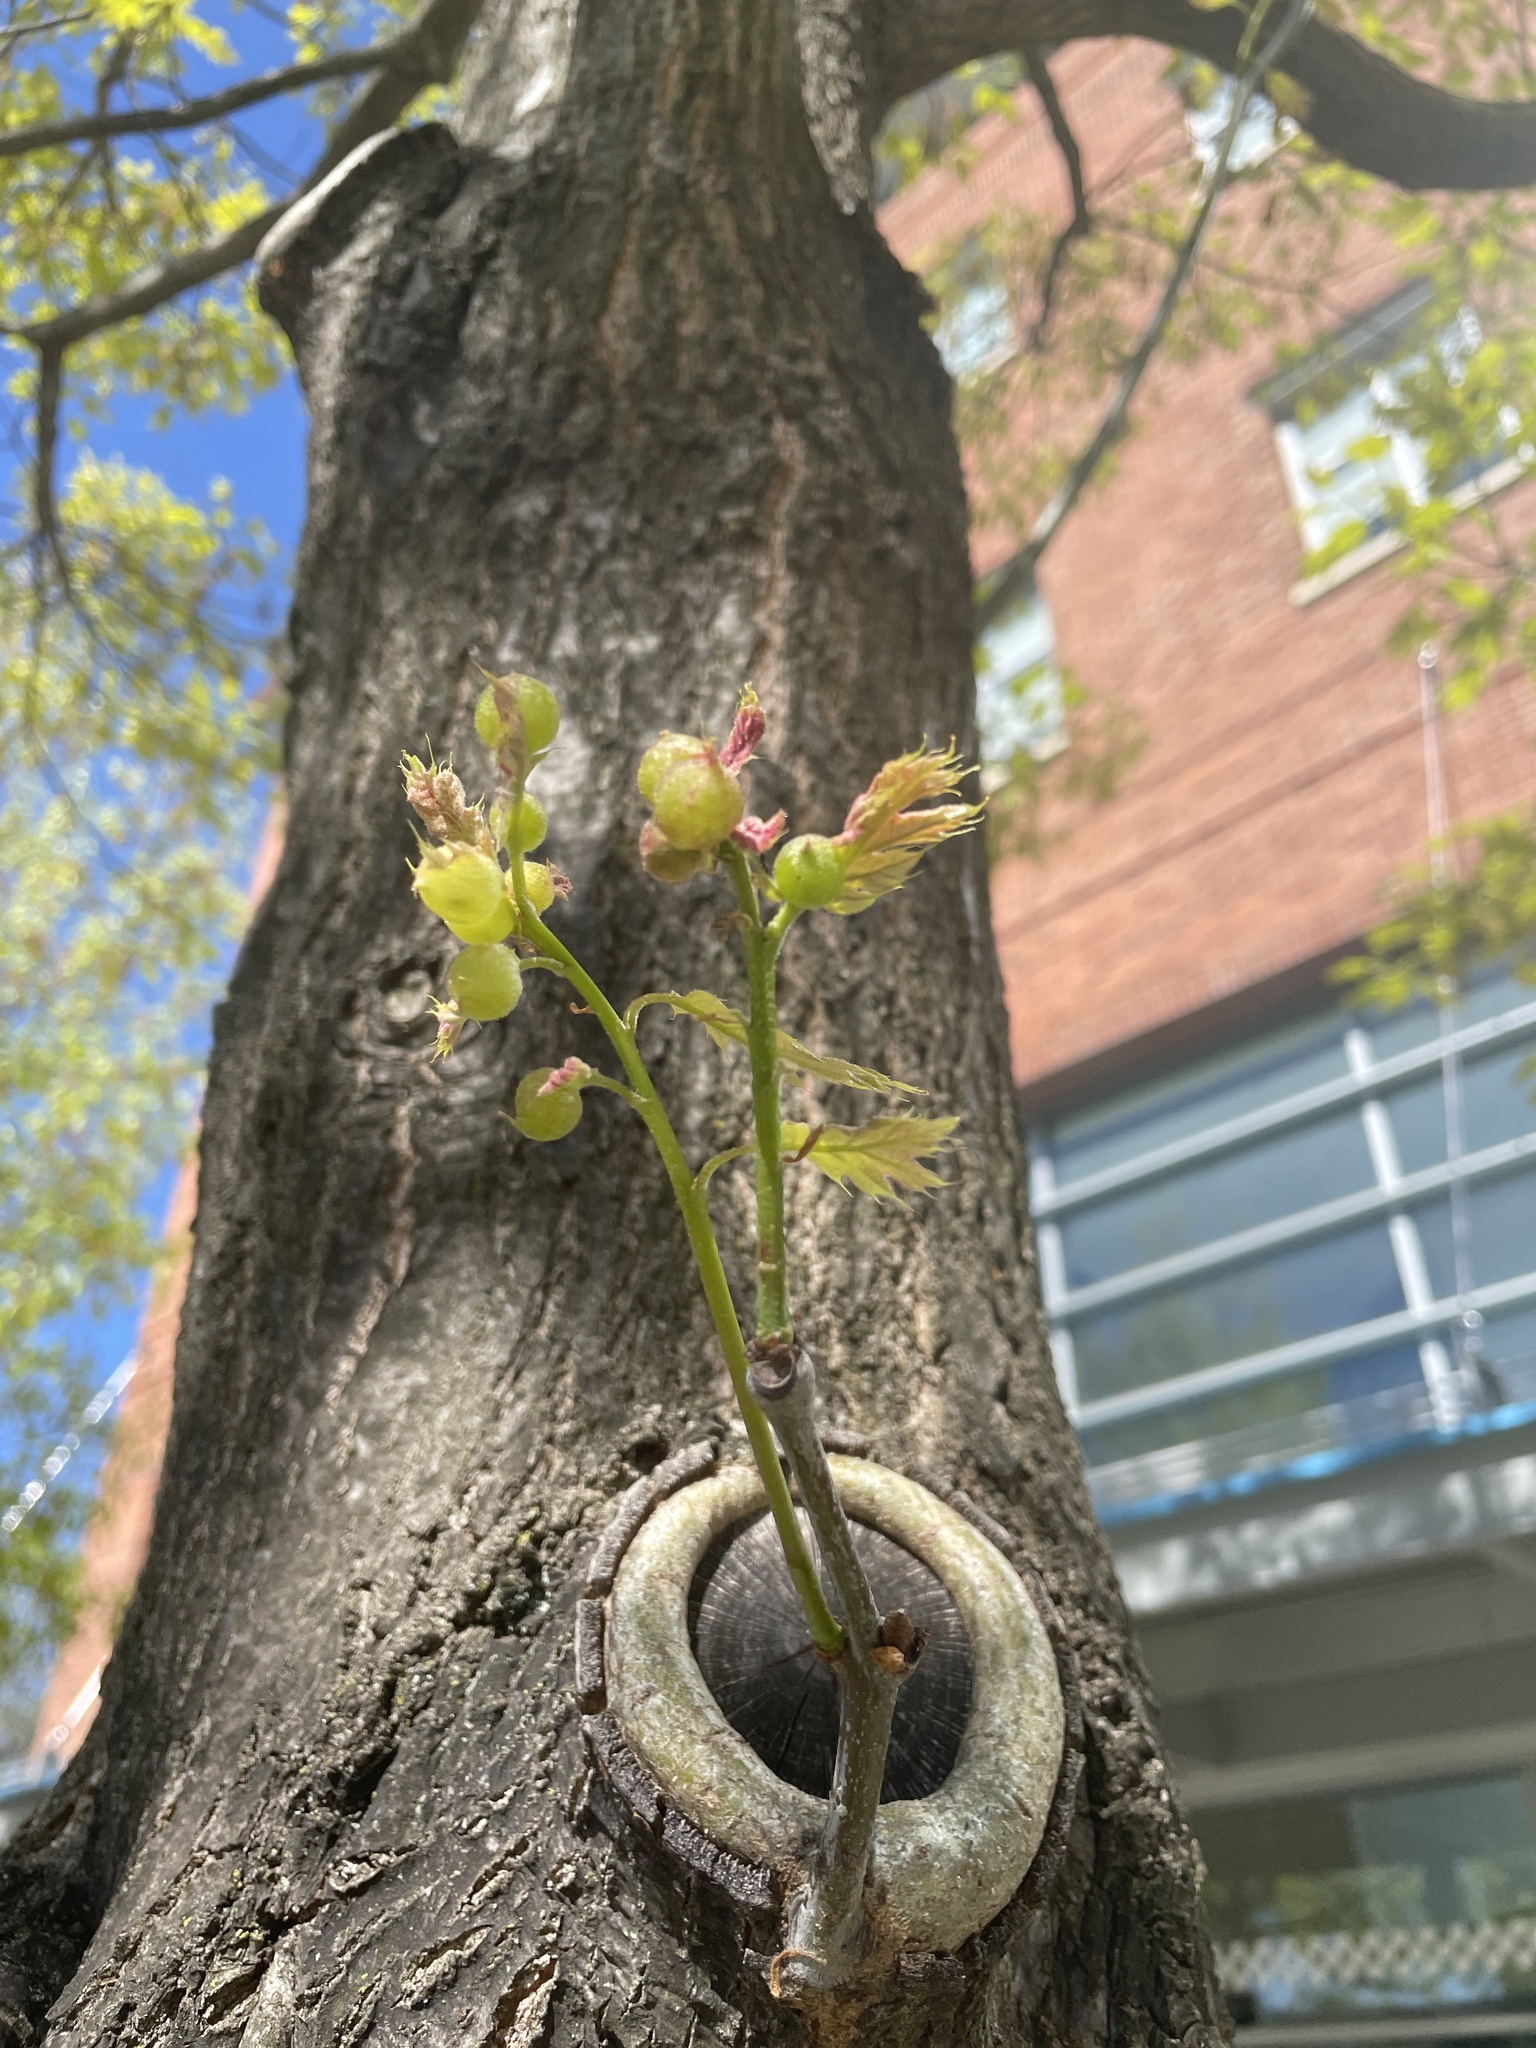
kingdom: Animalia
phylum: Arthropoda
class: Insecta
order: Hymenoptera
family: Cynipidae
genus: Dryocosmus
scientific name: Dryocosmus quercuspalustris
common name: Succulent oak gall wasp
